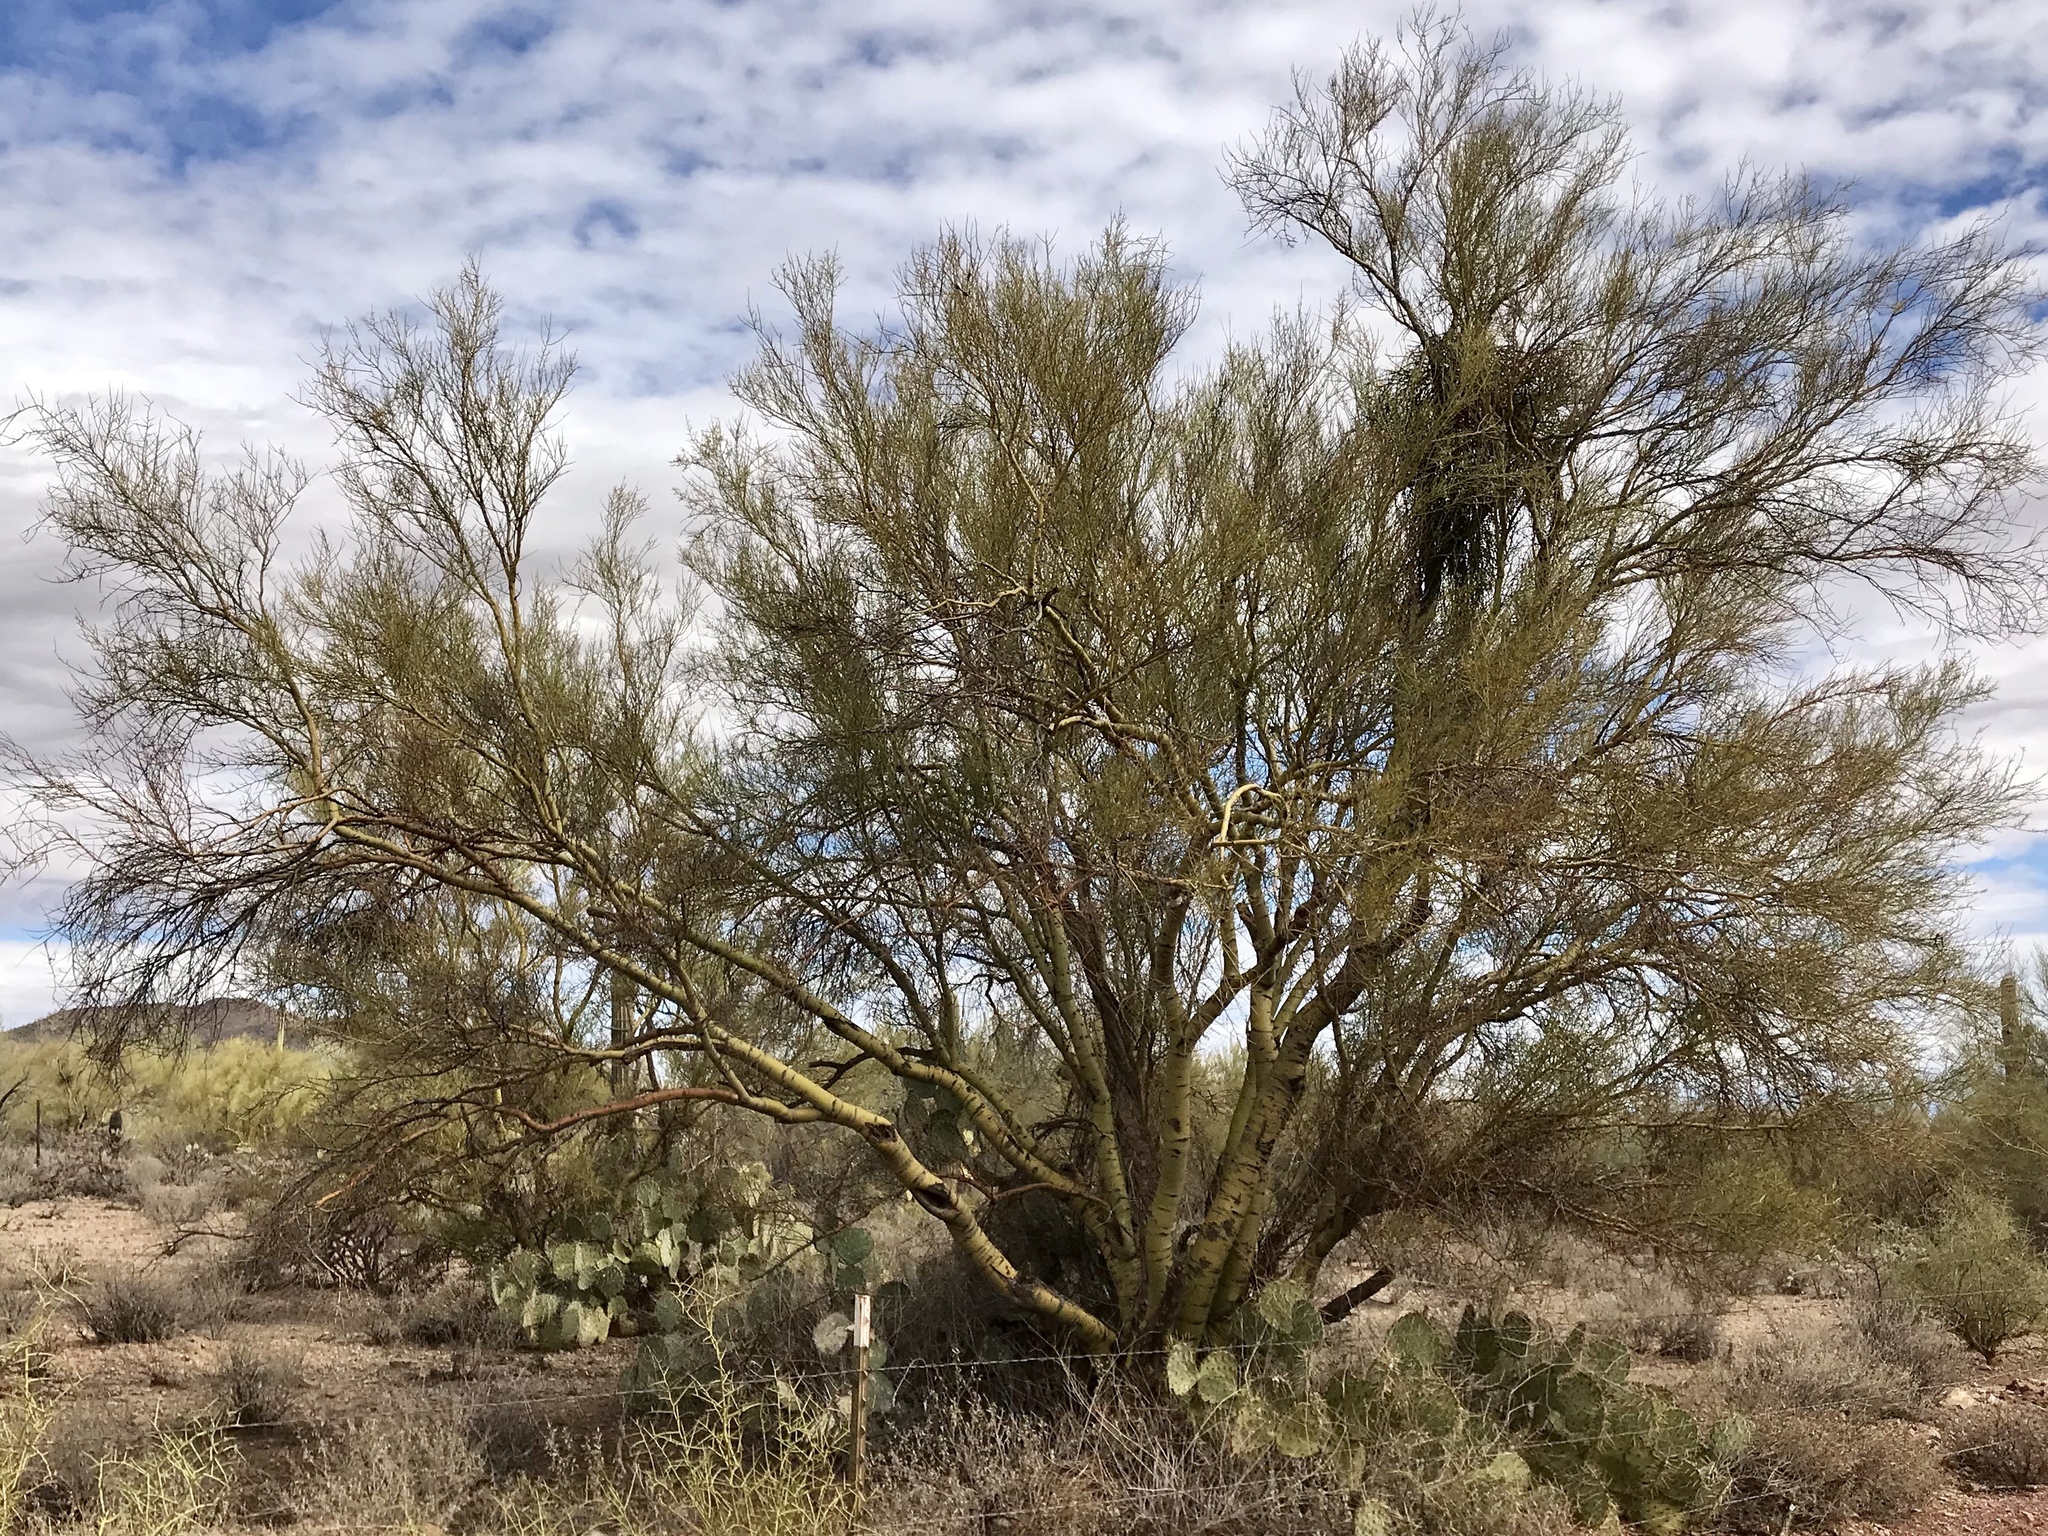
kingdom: Plantae
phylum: Tracheophyta
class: Magnoliopsida
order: Fabales
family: Fabaceae
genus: Parkinsonia
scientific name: Parkinsonia microphylla
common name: Yellow paloverde
